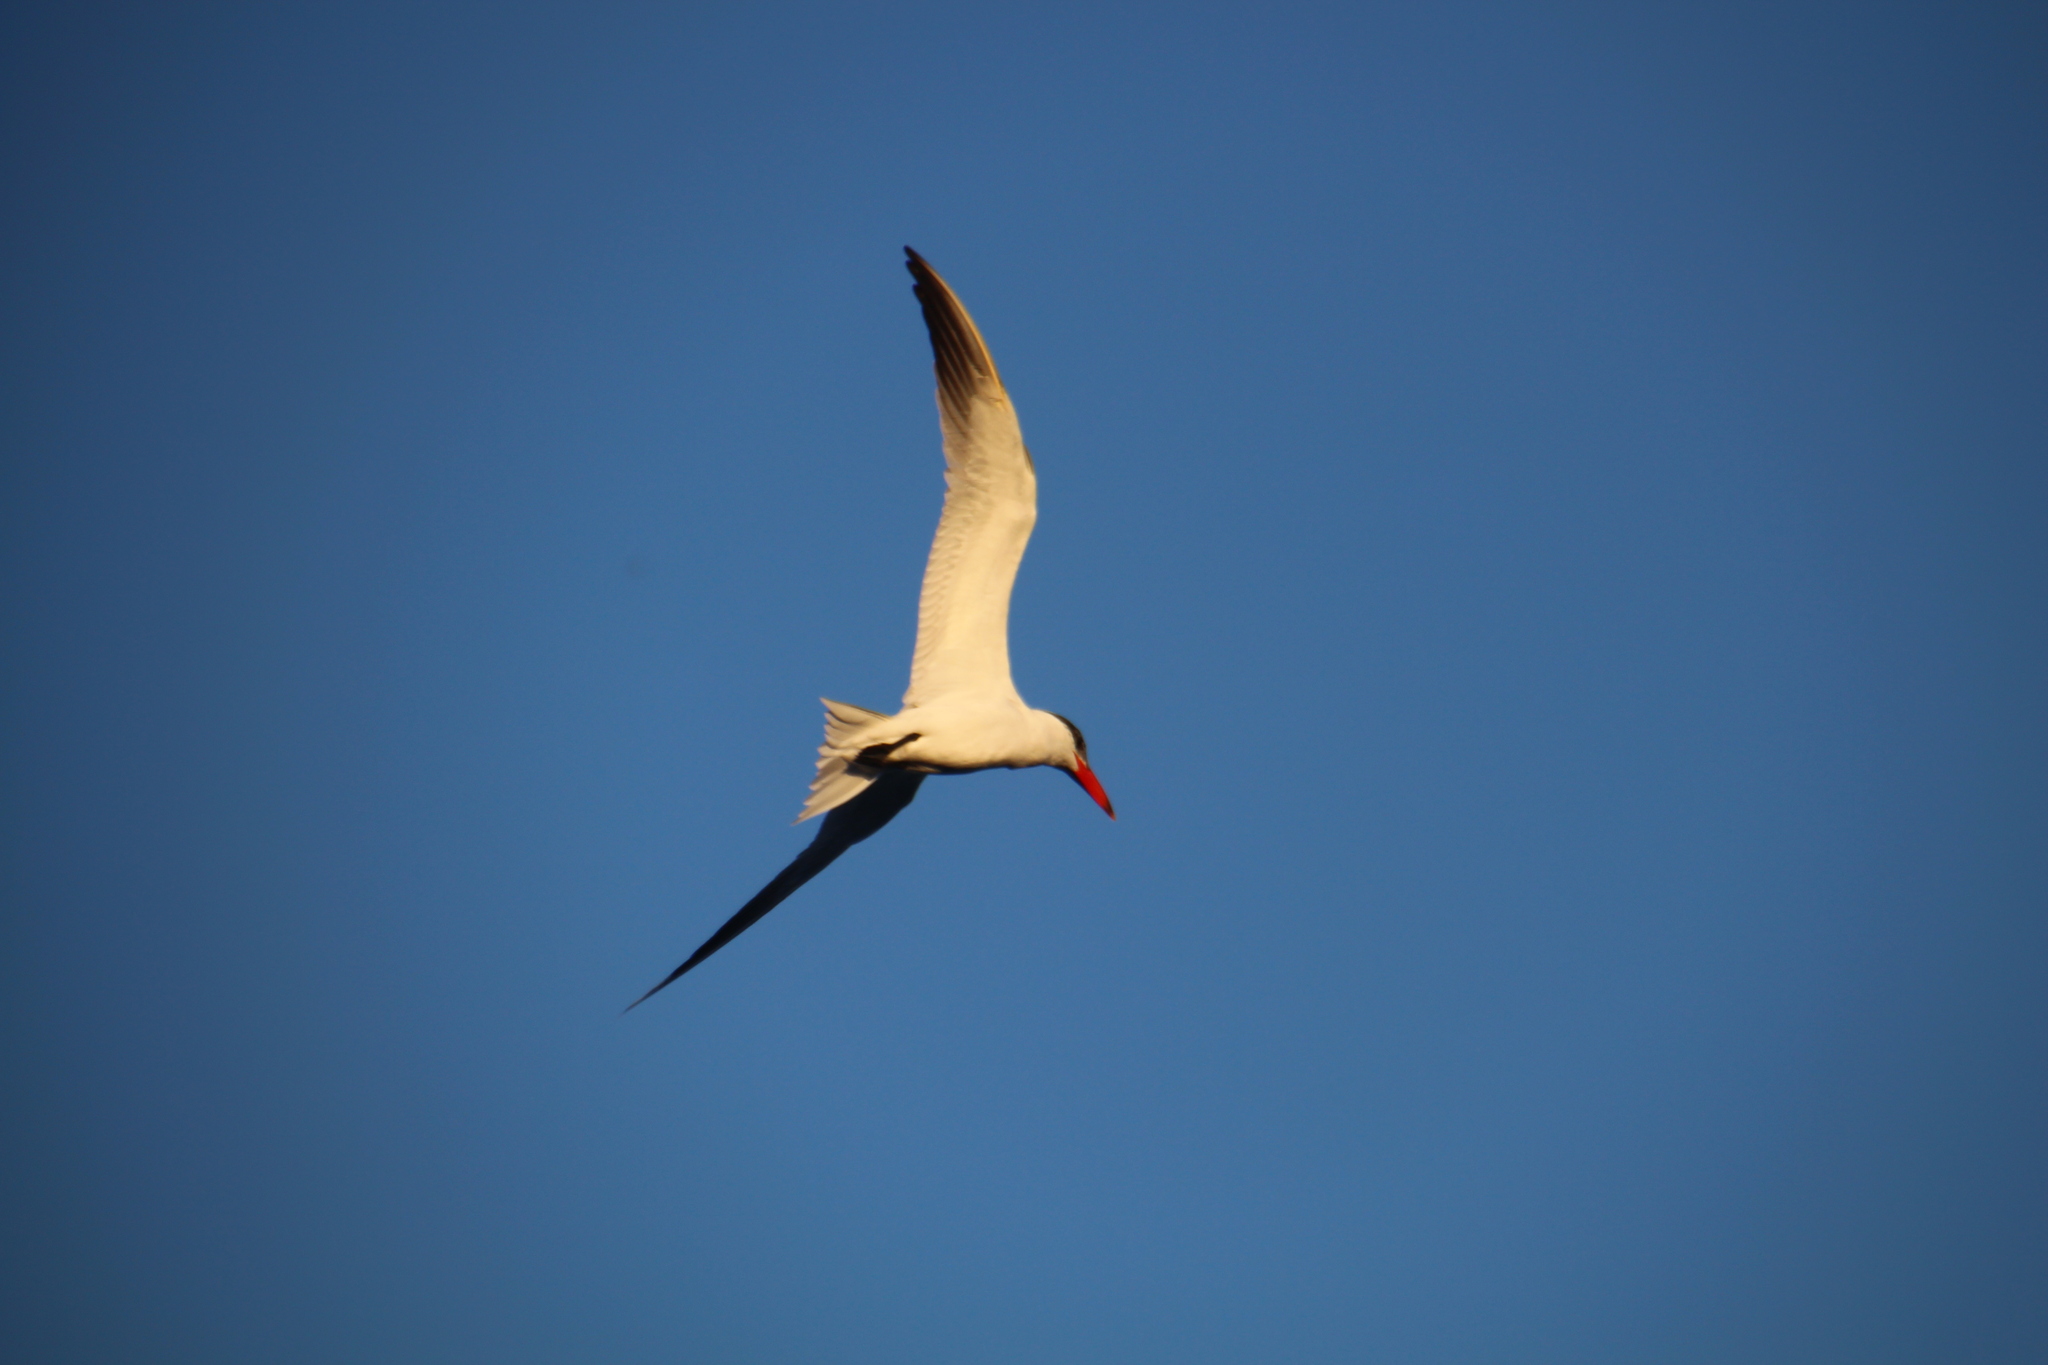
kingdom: Animalia
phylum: Chordata
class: Aves
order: Charadriiformes
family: Laridae
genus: Hydroprogne
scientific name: Hydroprogne caspia
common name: Caspian tern
